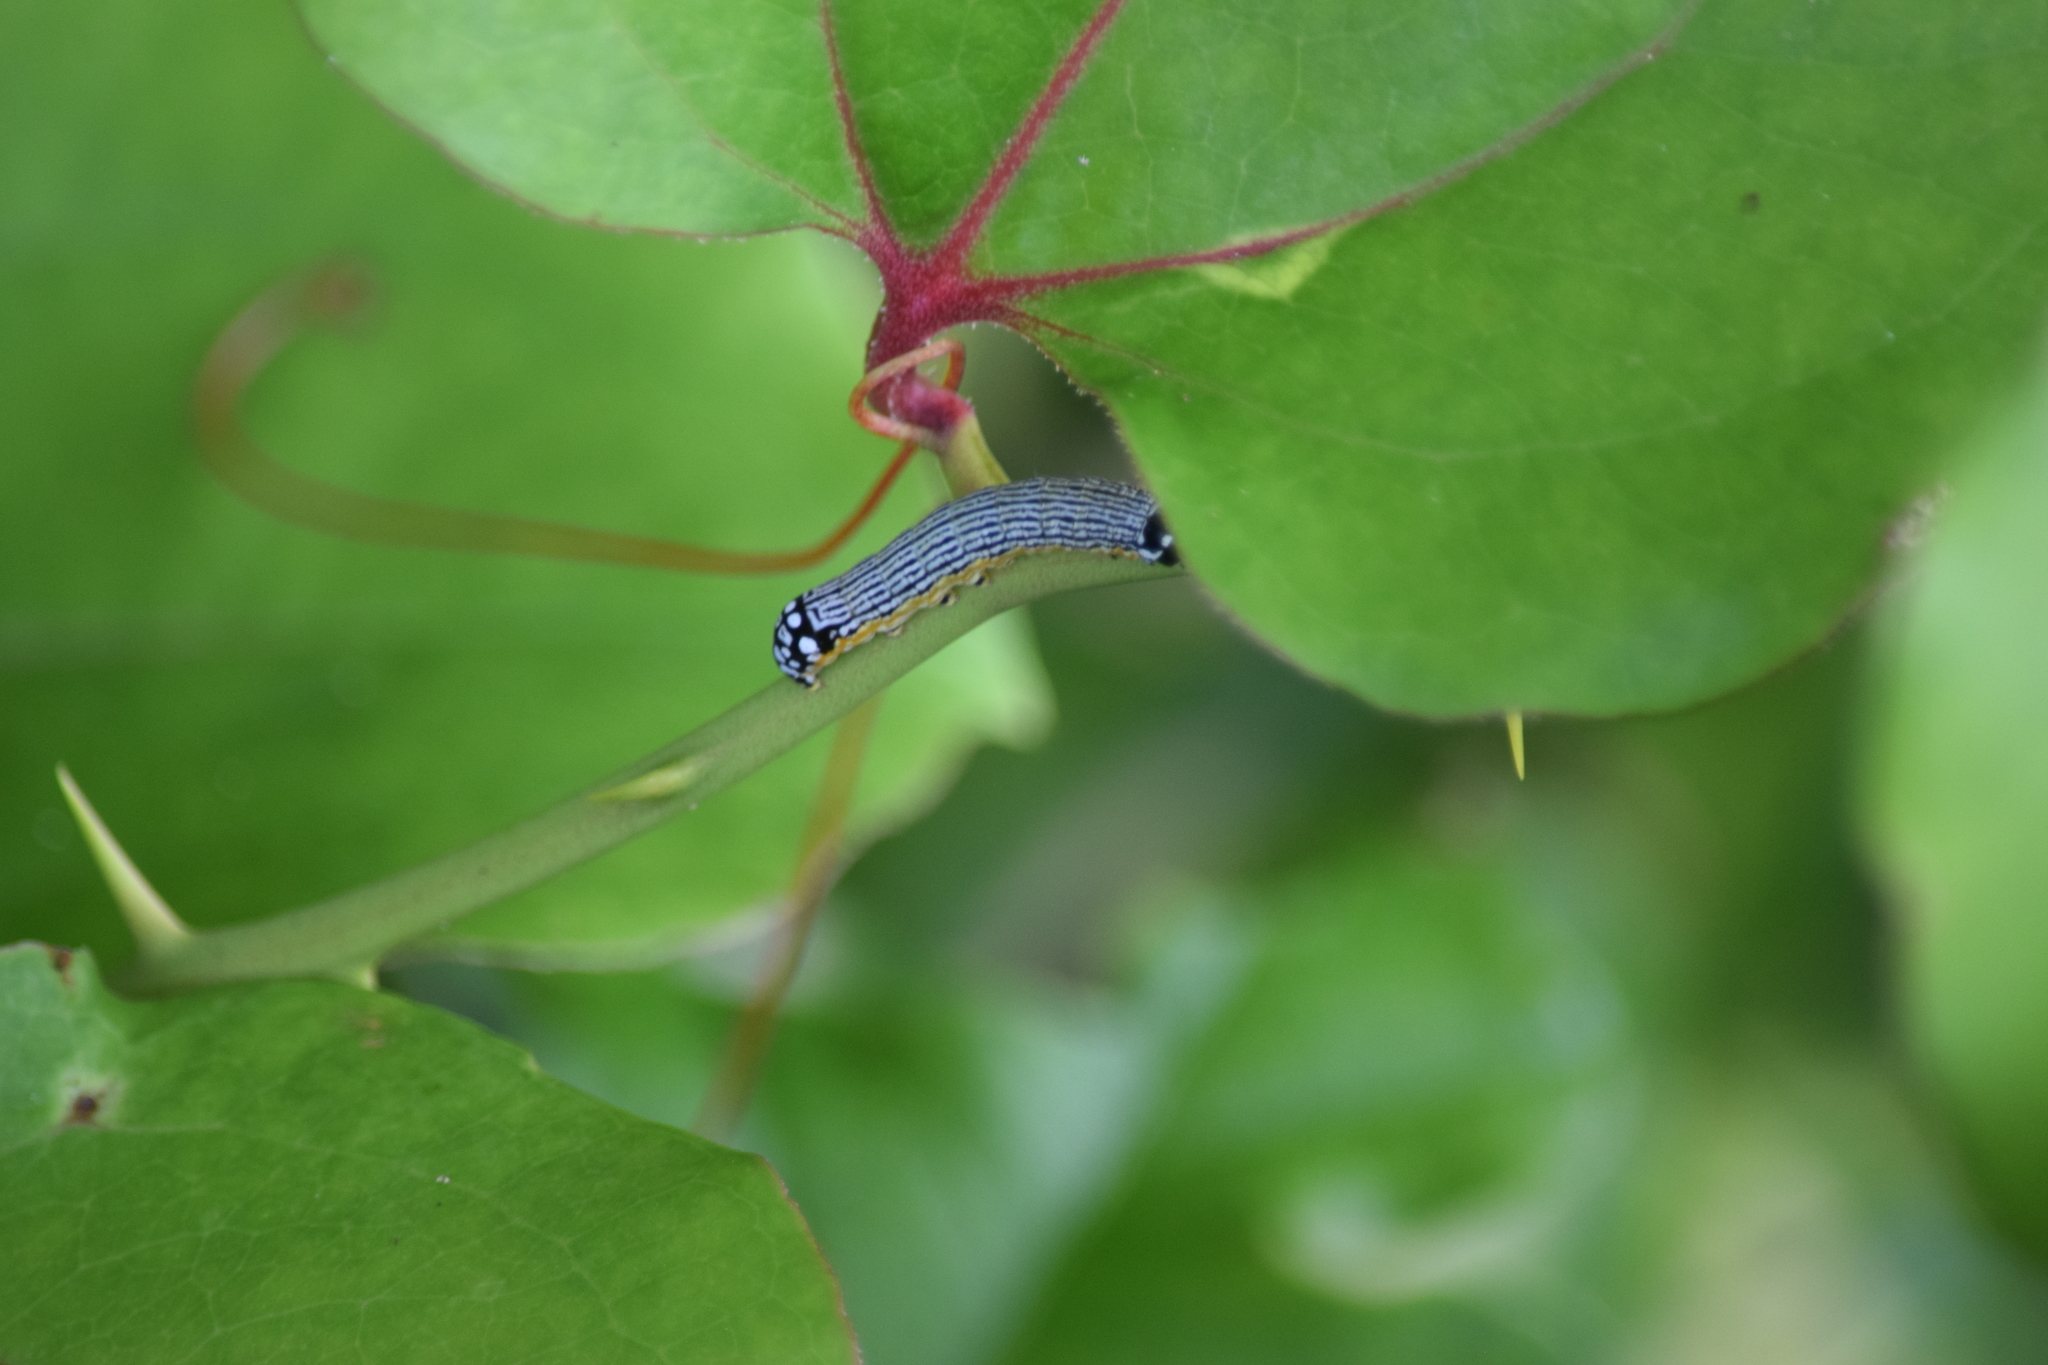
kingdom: Animalia
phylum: Arthropoda
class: Insecta
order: Lepidoptera
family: Noctuidae
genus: Phosphila
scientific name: Phosphila turbulenta
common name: Turbulent phosphila moth
